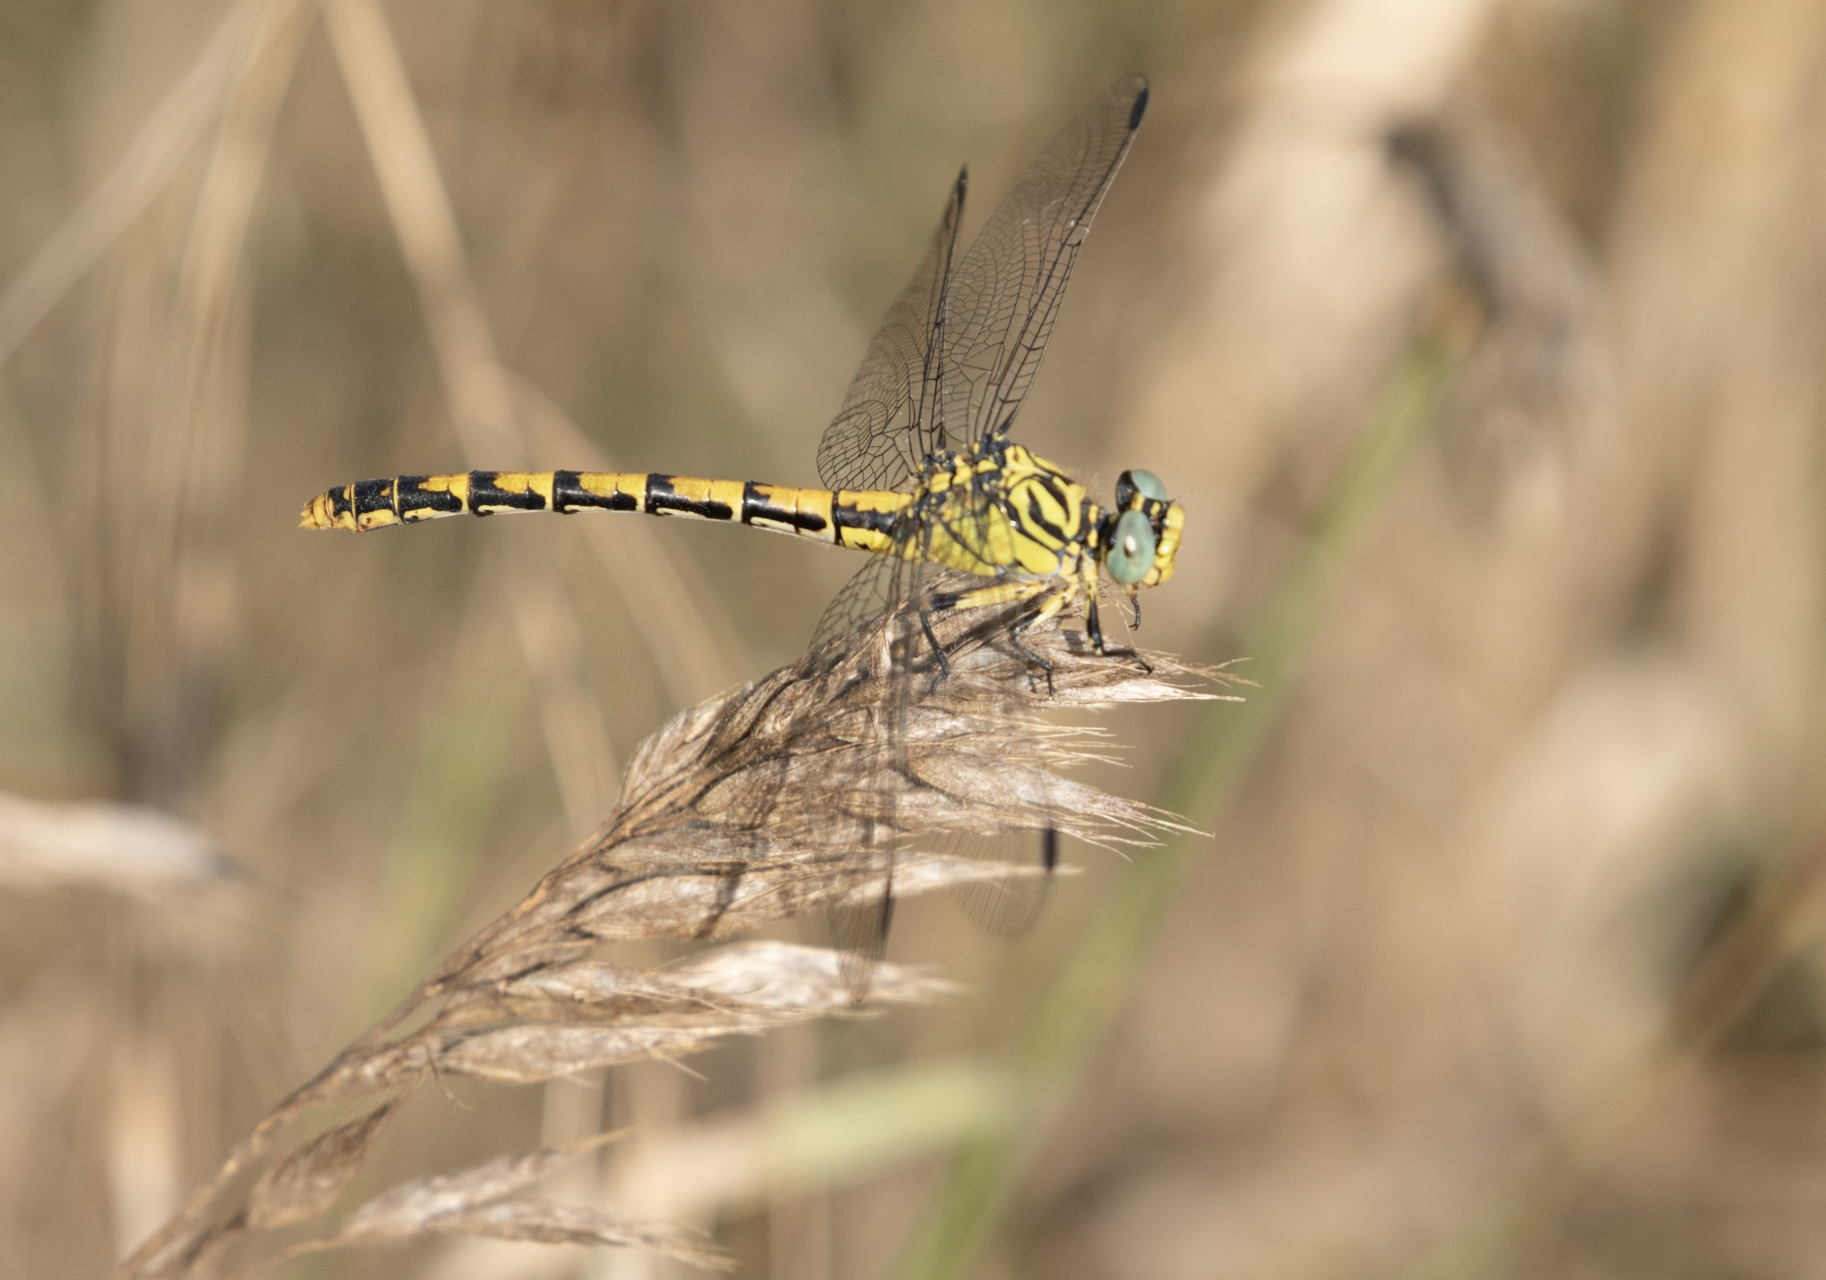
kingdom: Animalia
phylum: Arthropoda
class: Insecta
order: Odonata
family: Gomphidae
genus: Onychogomphus
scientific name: Onychogomphus forcipatus
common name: Small pincertail
